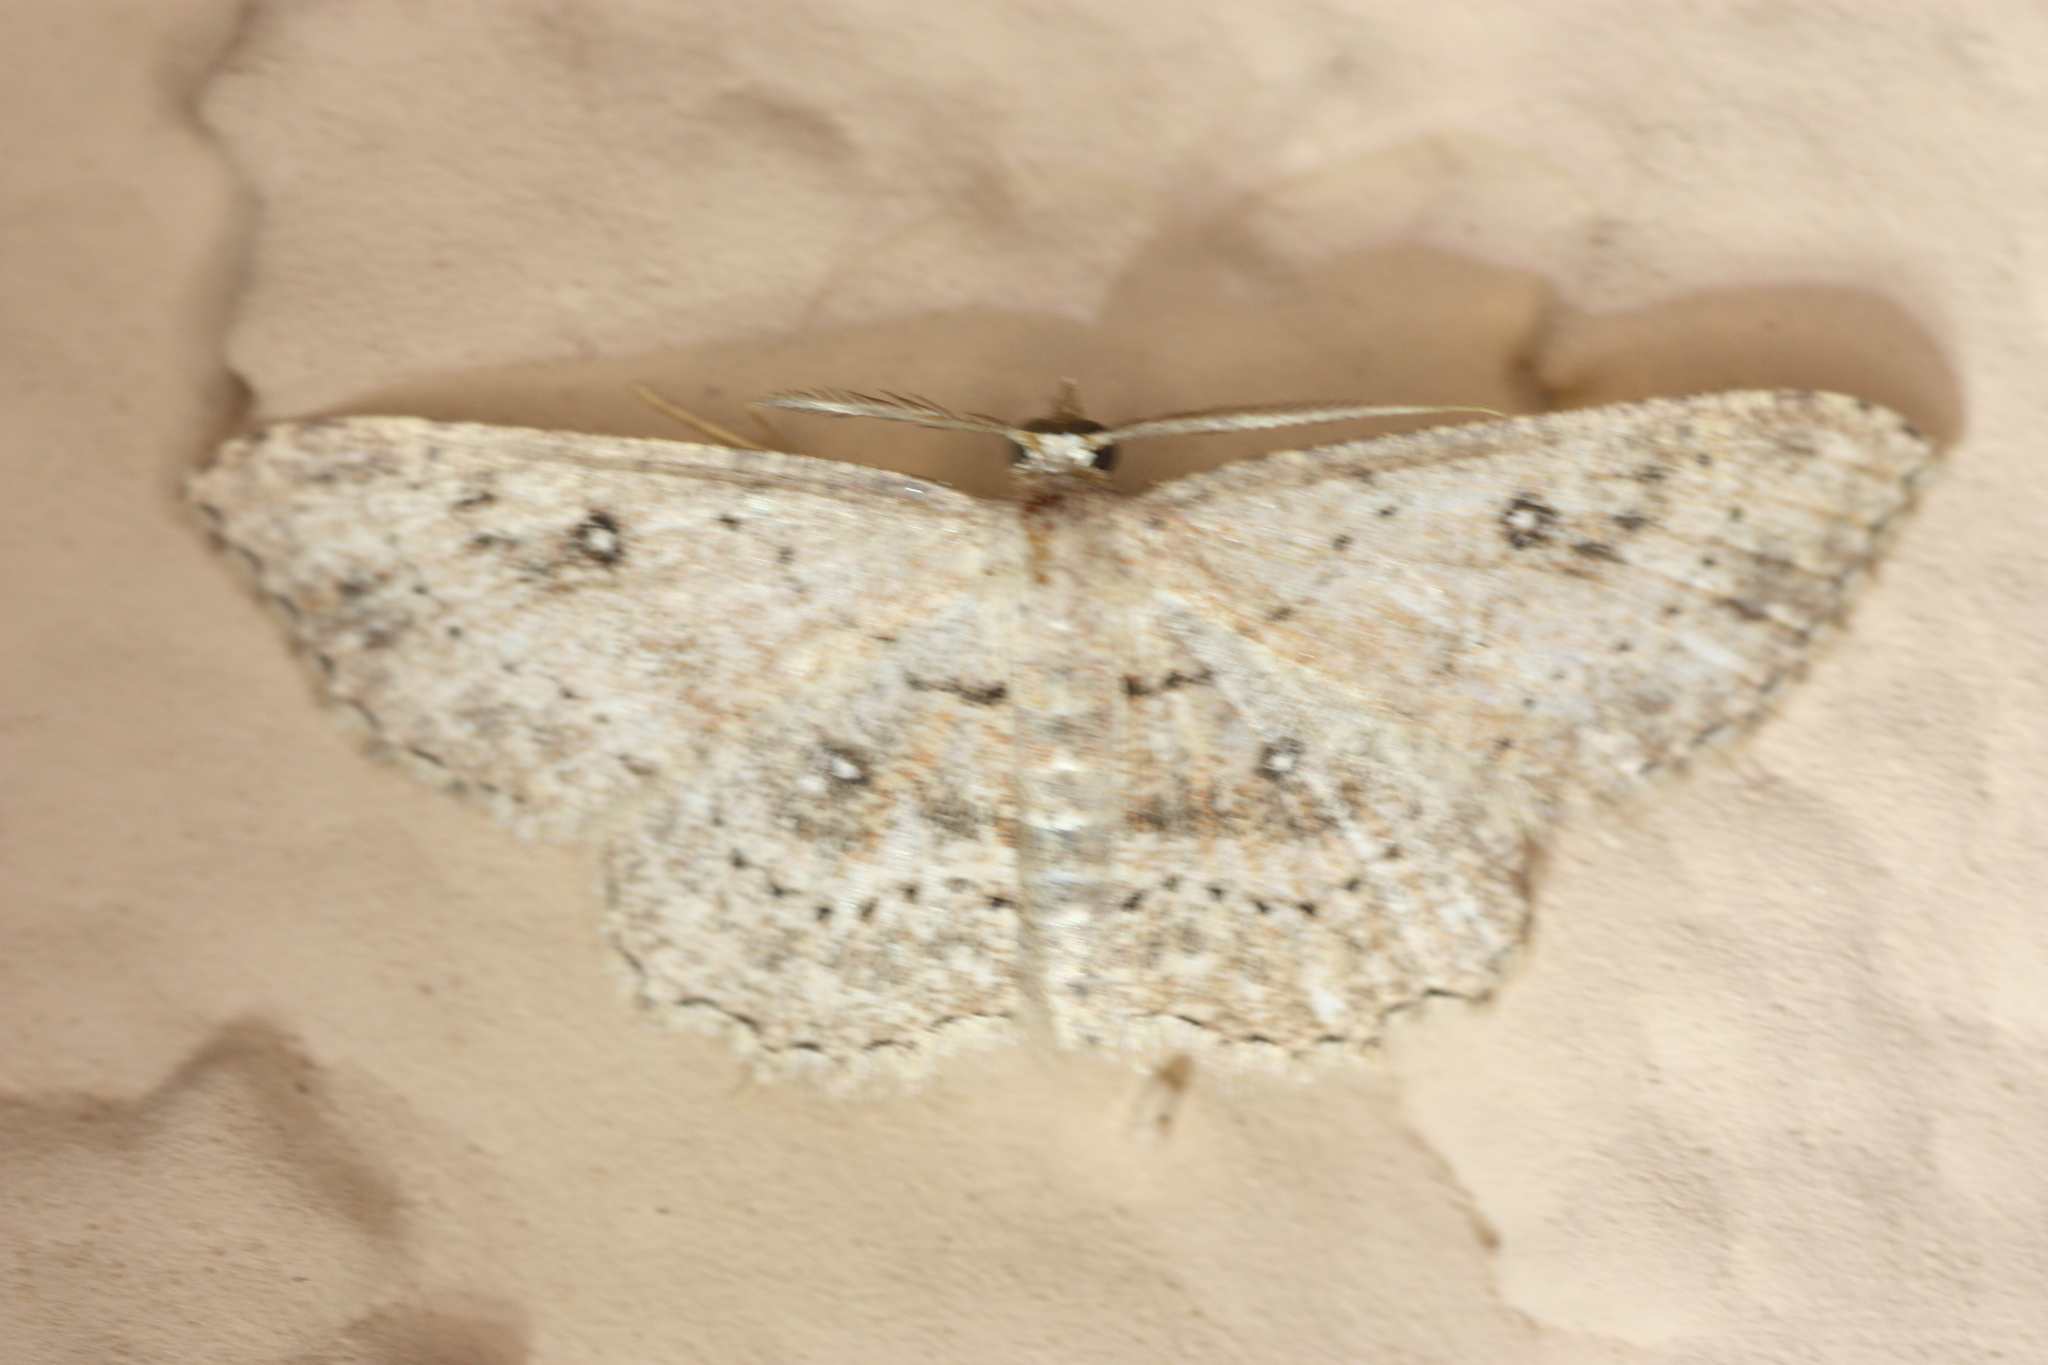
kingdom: Animalia
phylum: Arthropoda
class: Insecta
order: Lepidoptera
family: Geometridae
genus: Cyclophora
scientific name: Cyclophora nanaria
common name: Cankerworm
